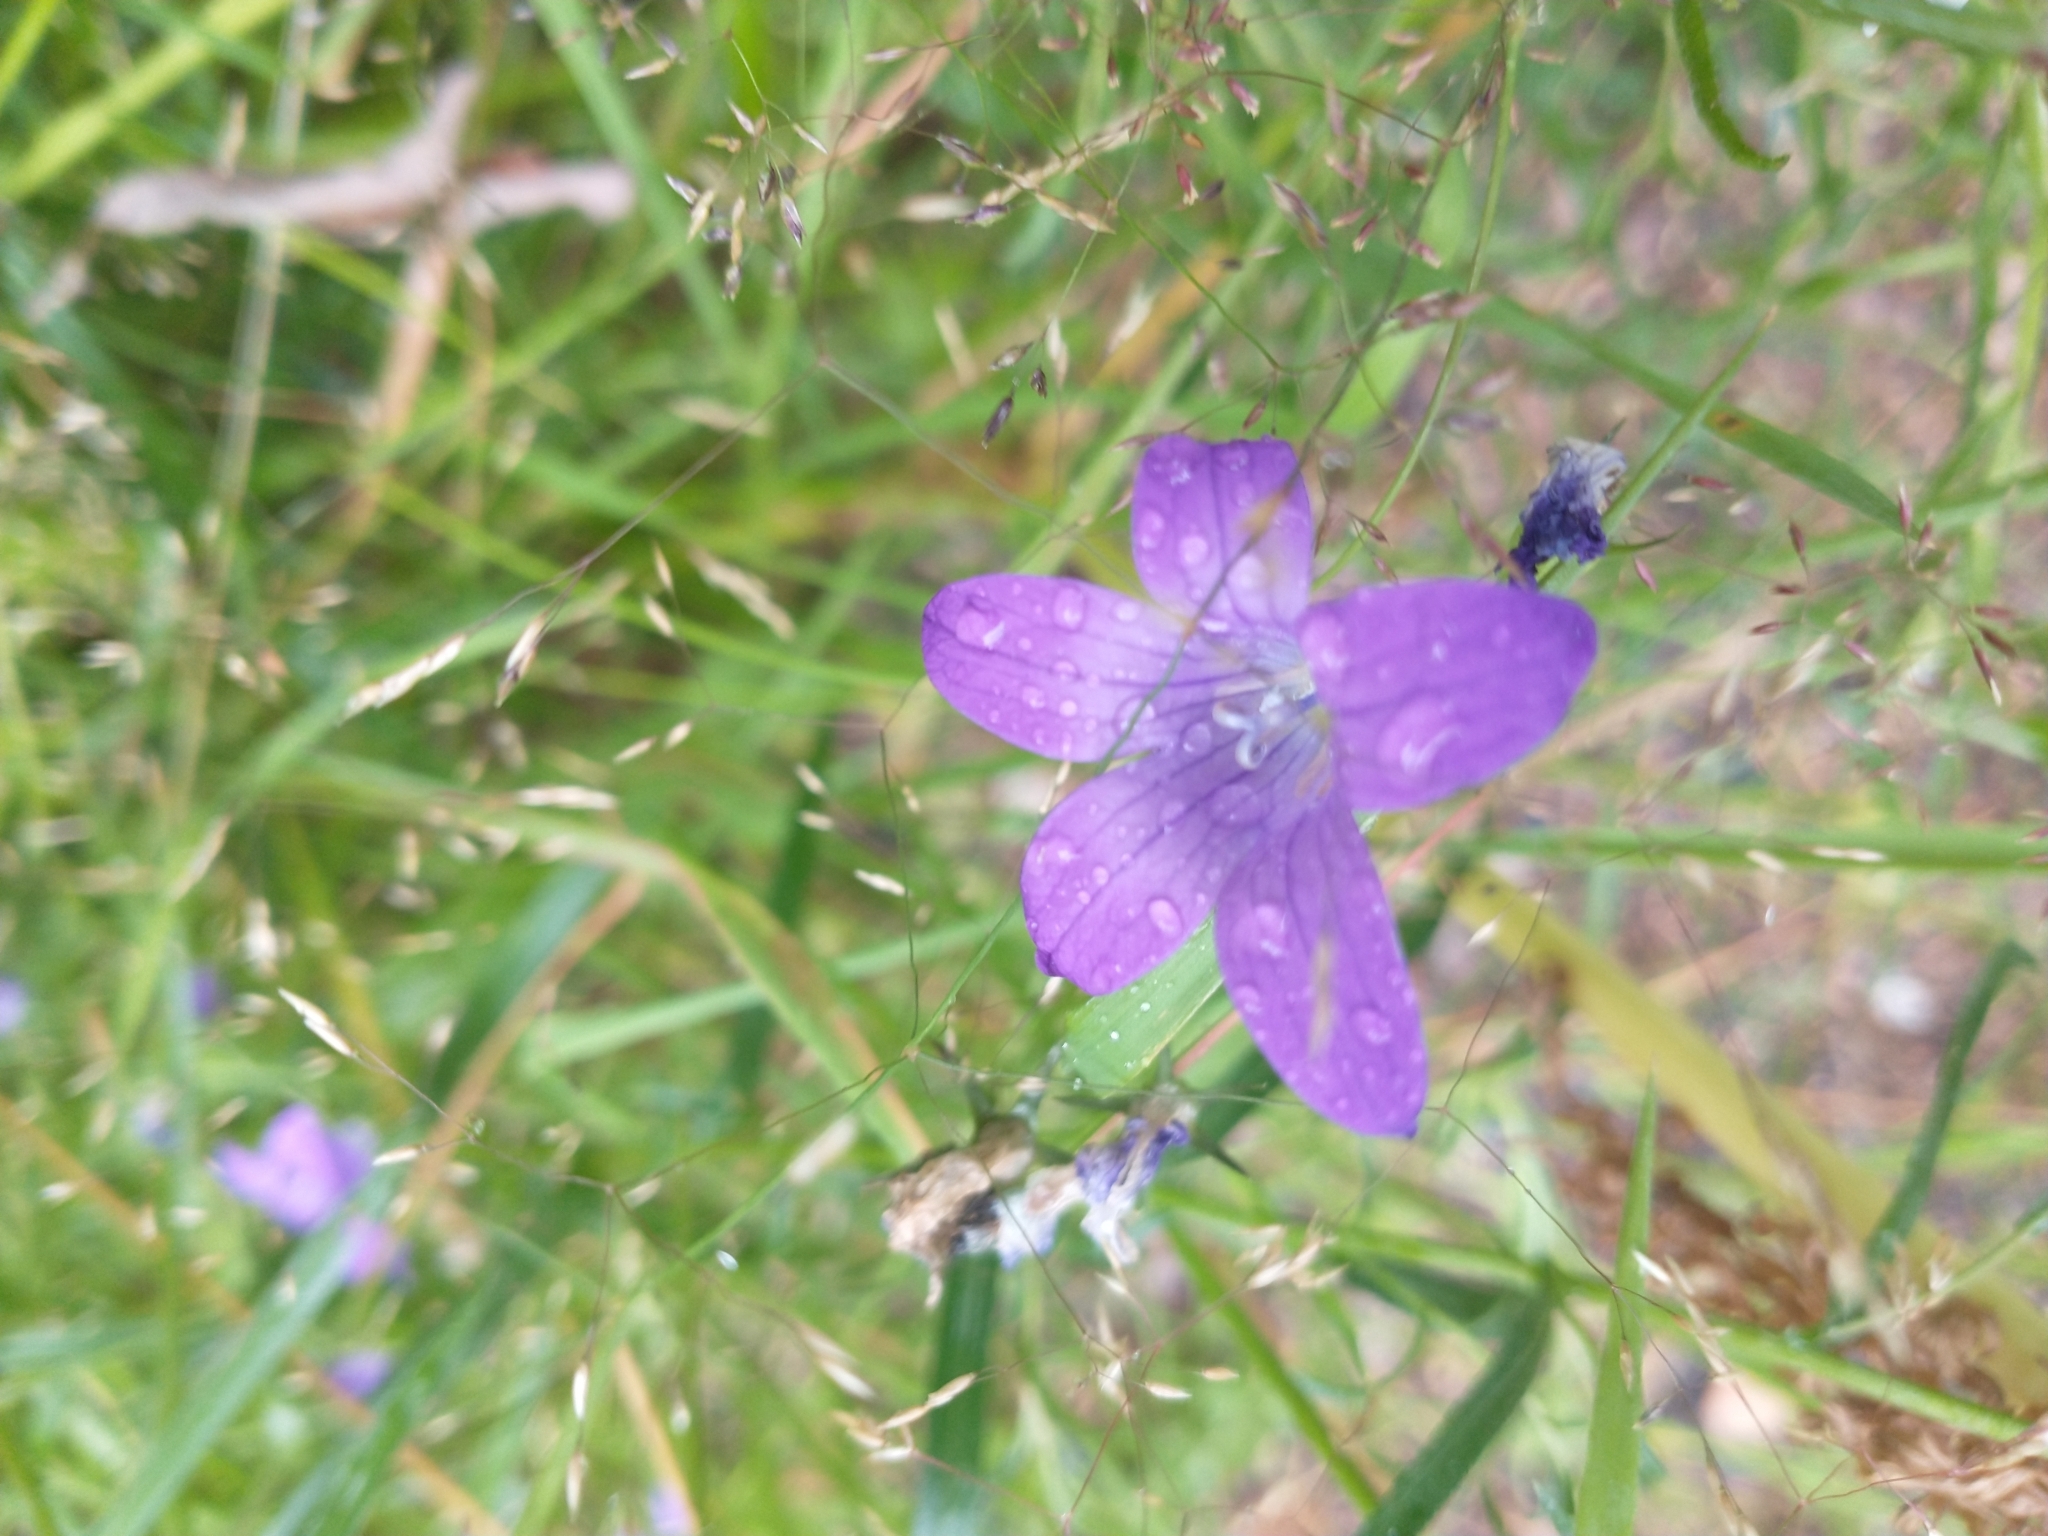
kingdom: Plantae
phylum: Tracheophyta
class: Magnoliopsida
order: Asterales
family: Campanulaceae
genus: Campanula
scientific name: Campanula patula
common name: Spreading bellflower
